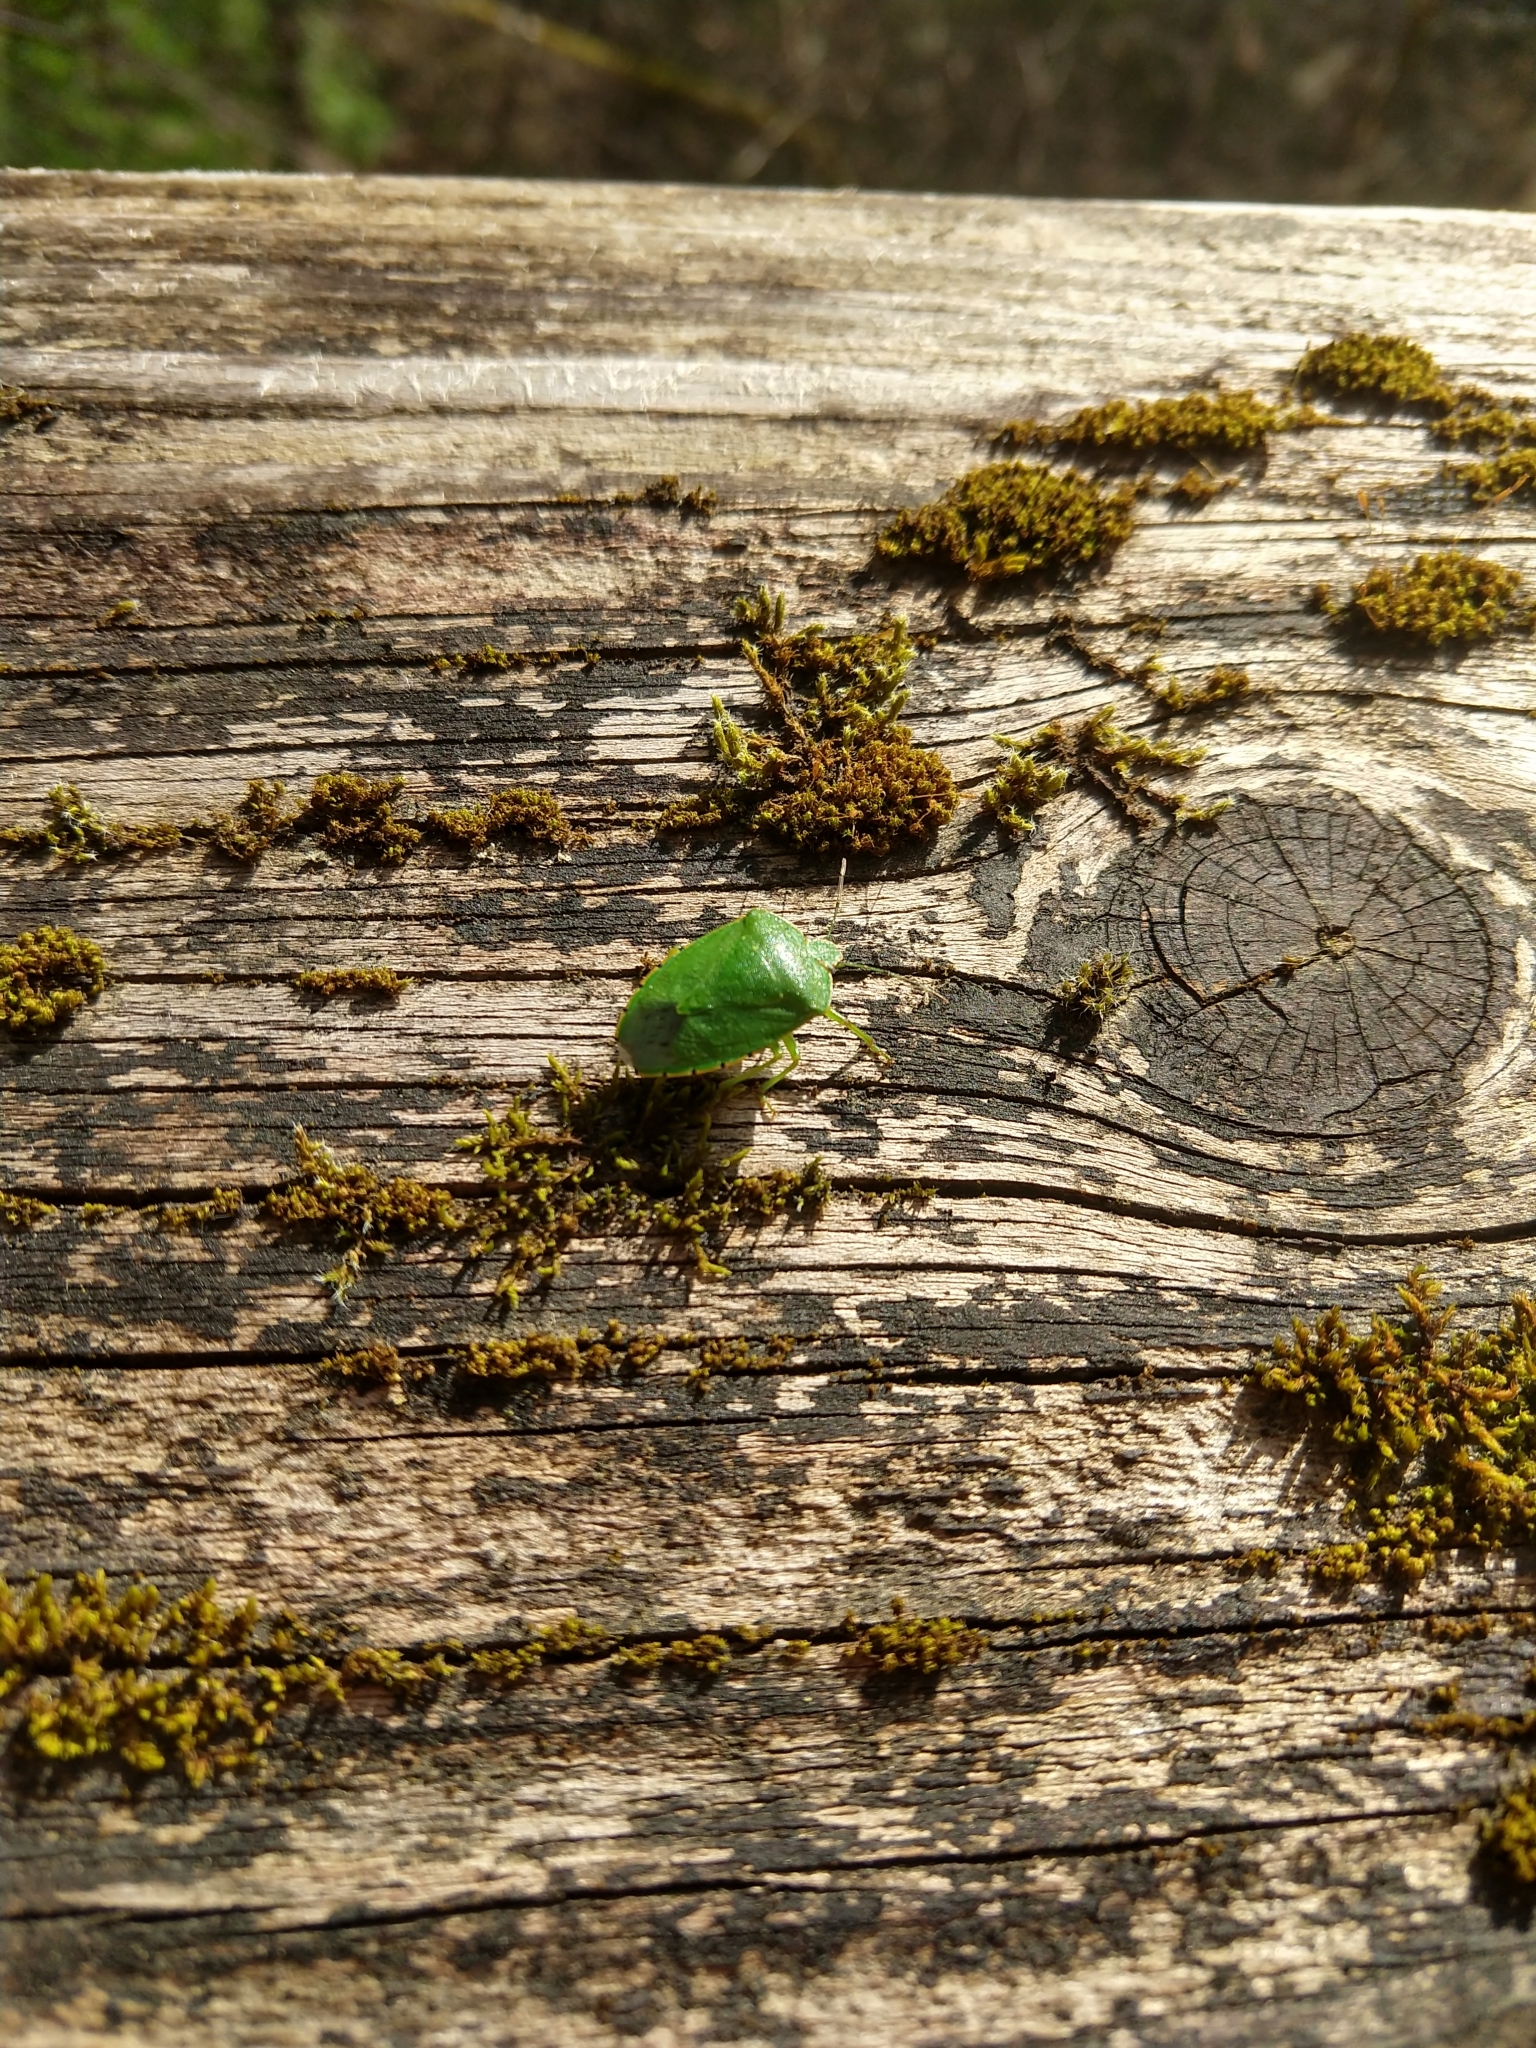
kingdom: Animalia
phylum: Arthropoda
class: Insecta
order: Hemiptera
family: Pentatomidae
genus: Chinavia
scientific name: Chinavia hilaris
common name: Green stink bug
